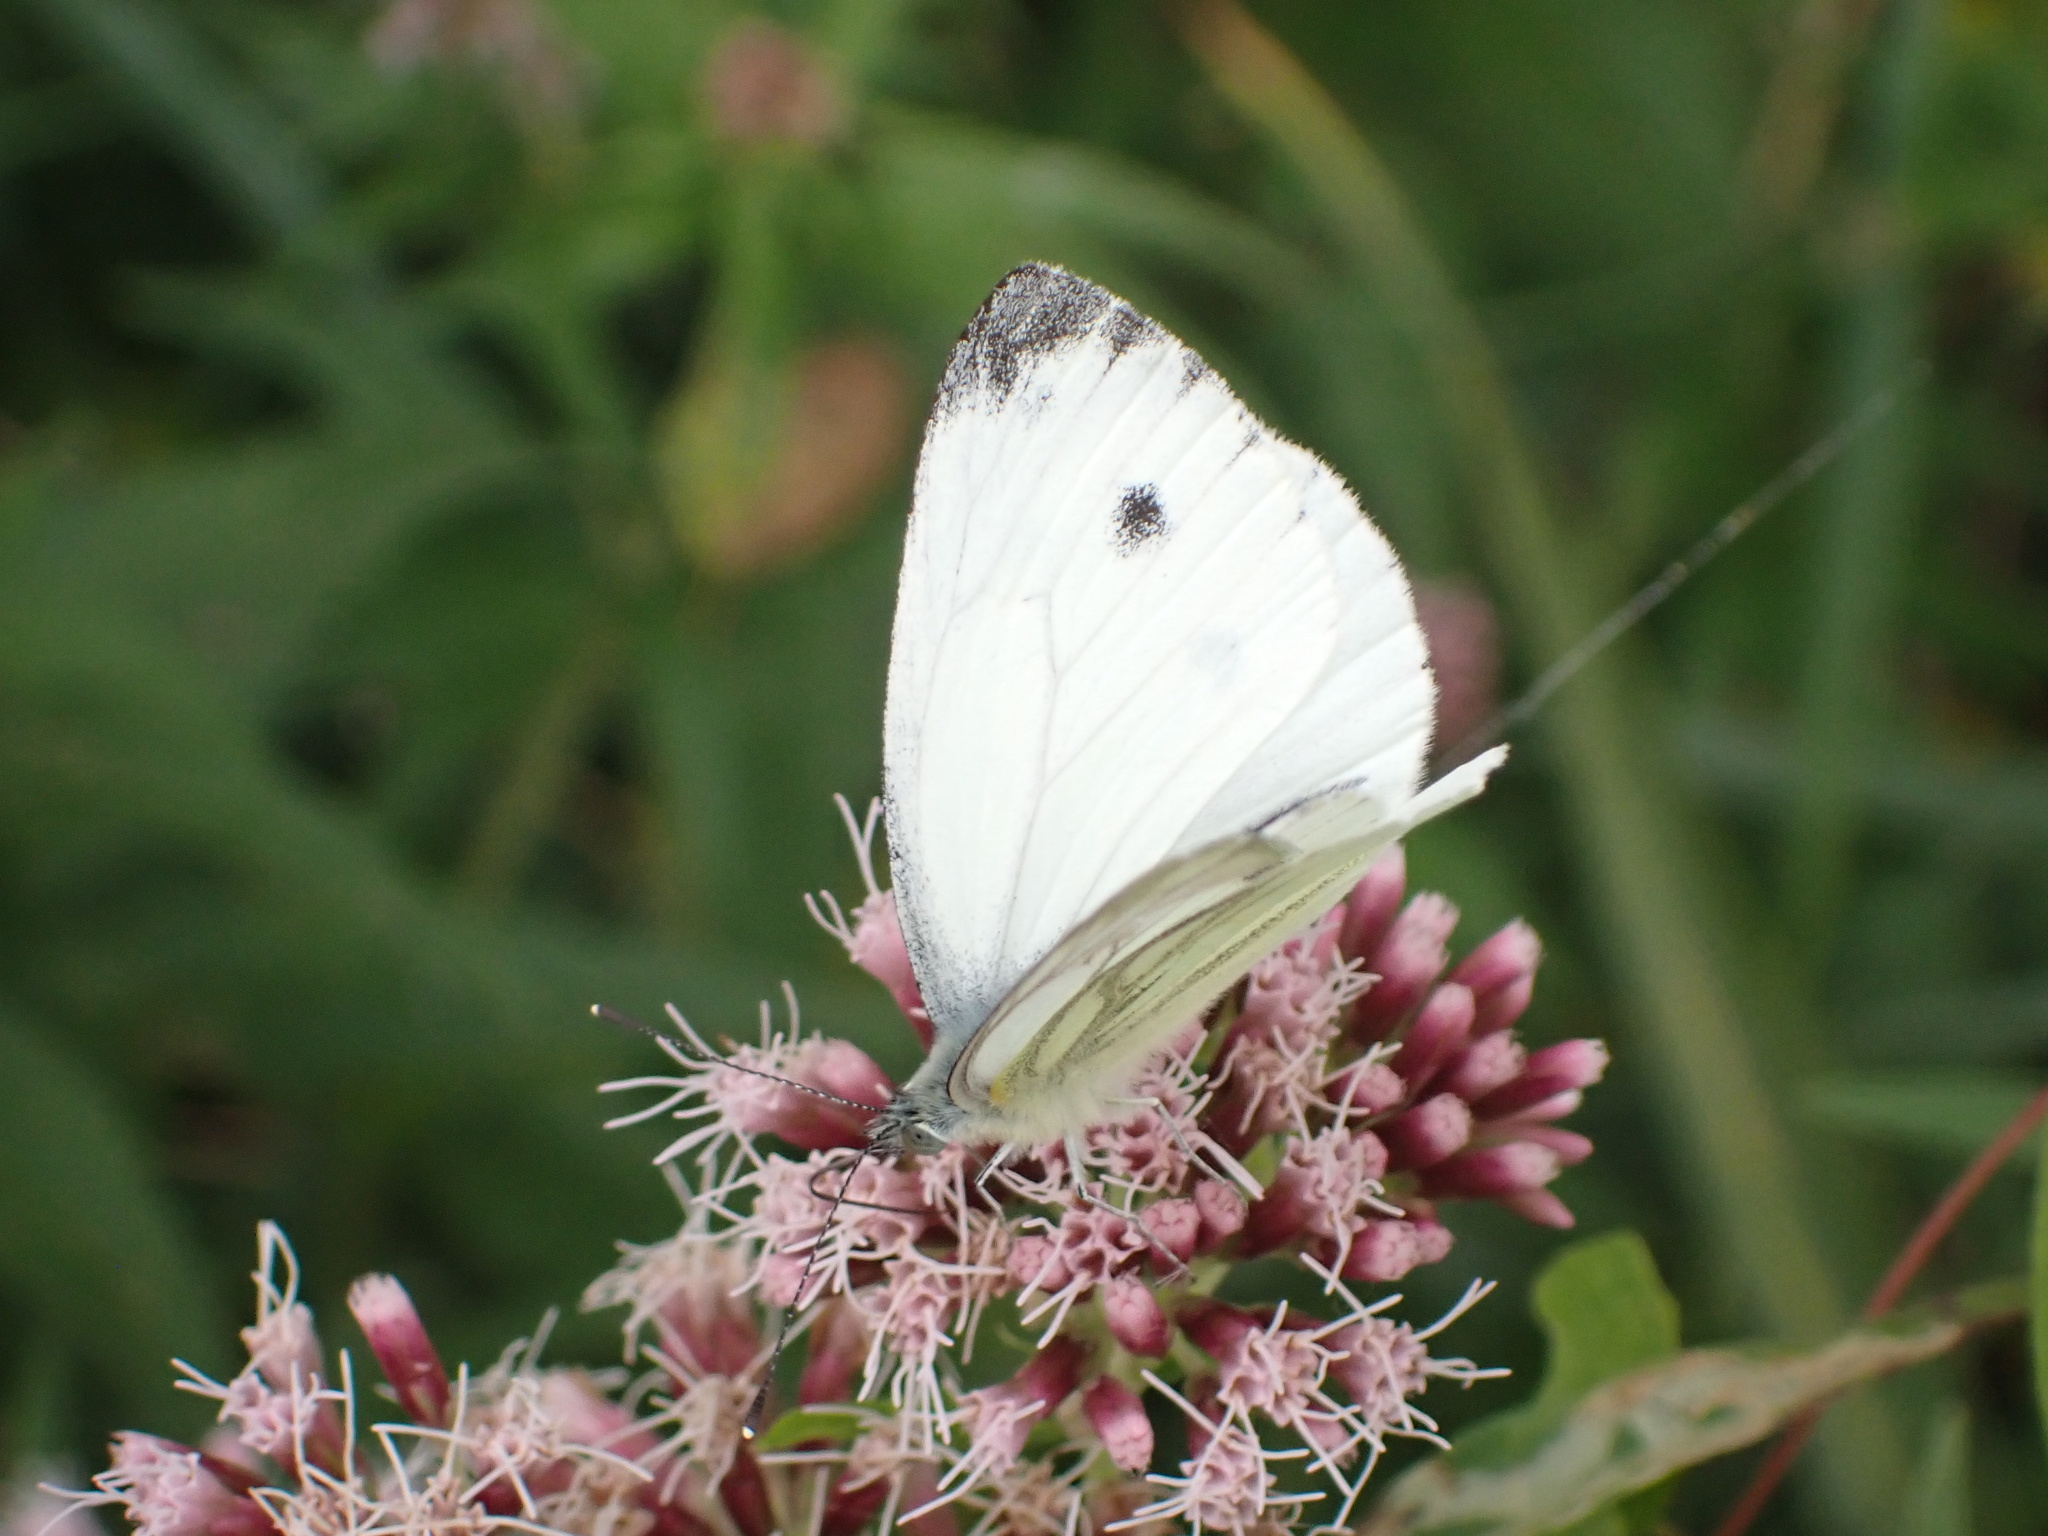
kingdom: Animalia
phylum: Arthropoda
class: Insecta
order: Lepidoptera
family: Pieridae
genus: Pieris
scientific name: Pieris napi
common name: Green-veined white
